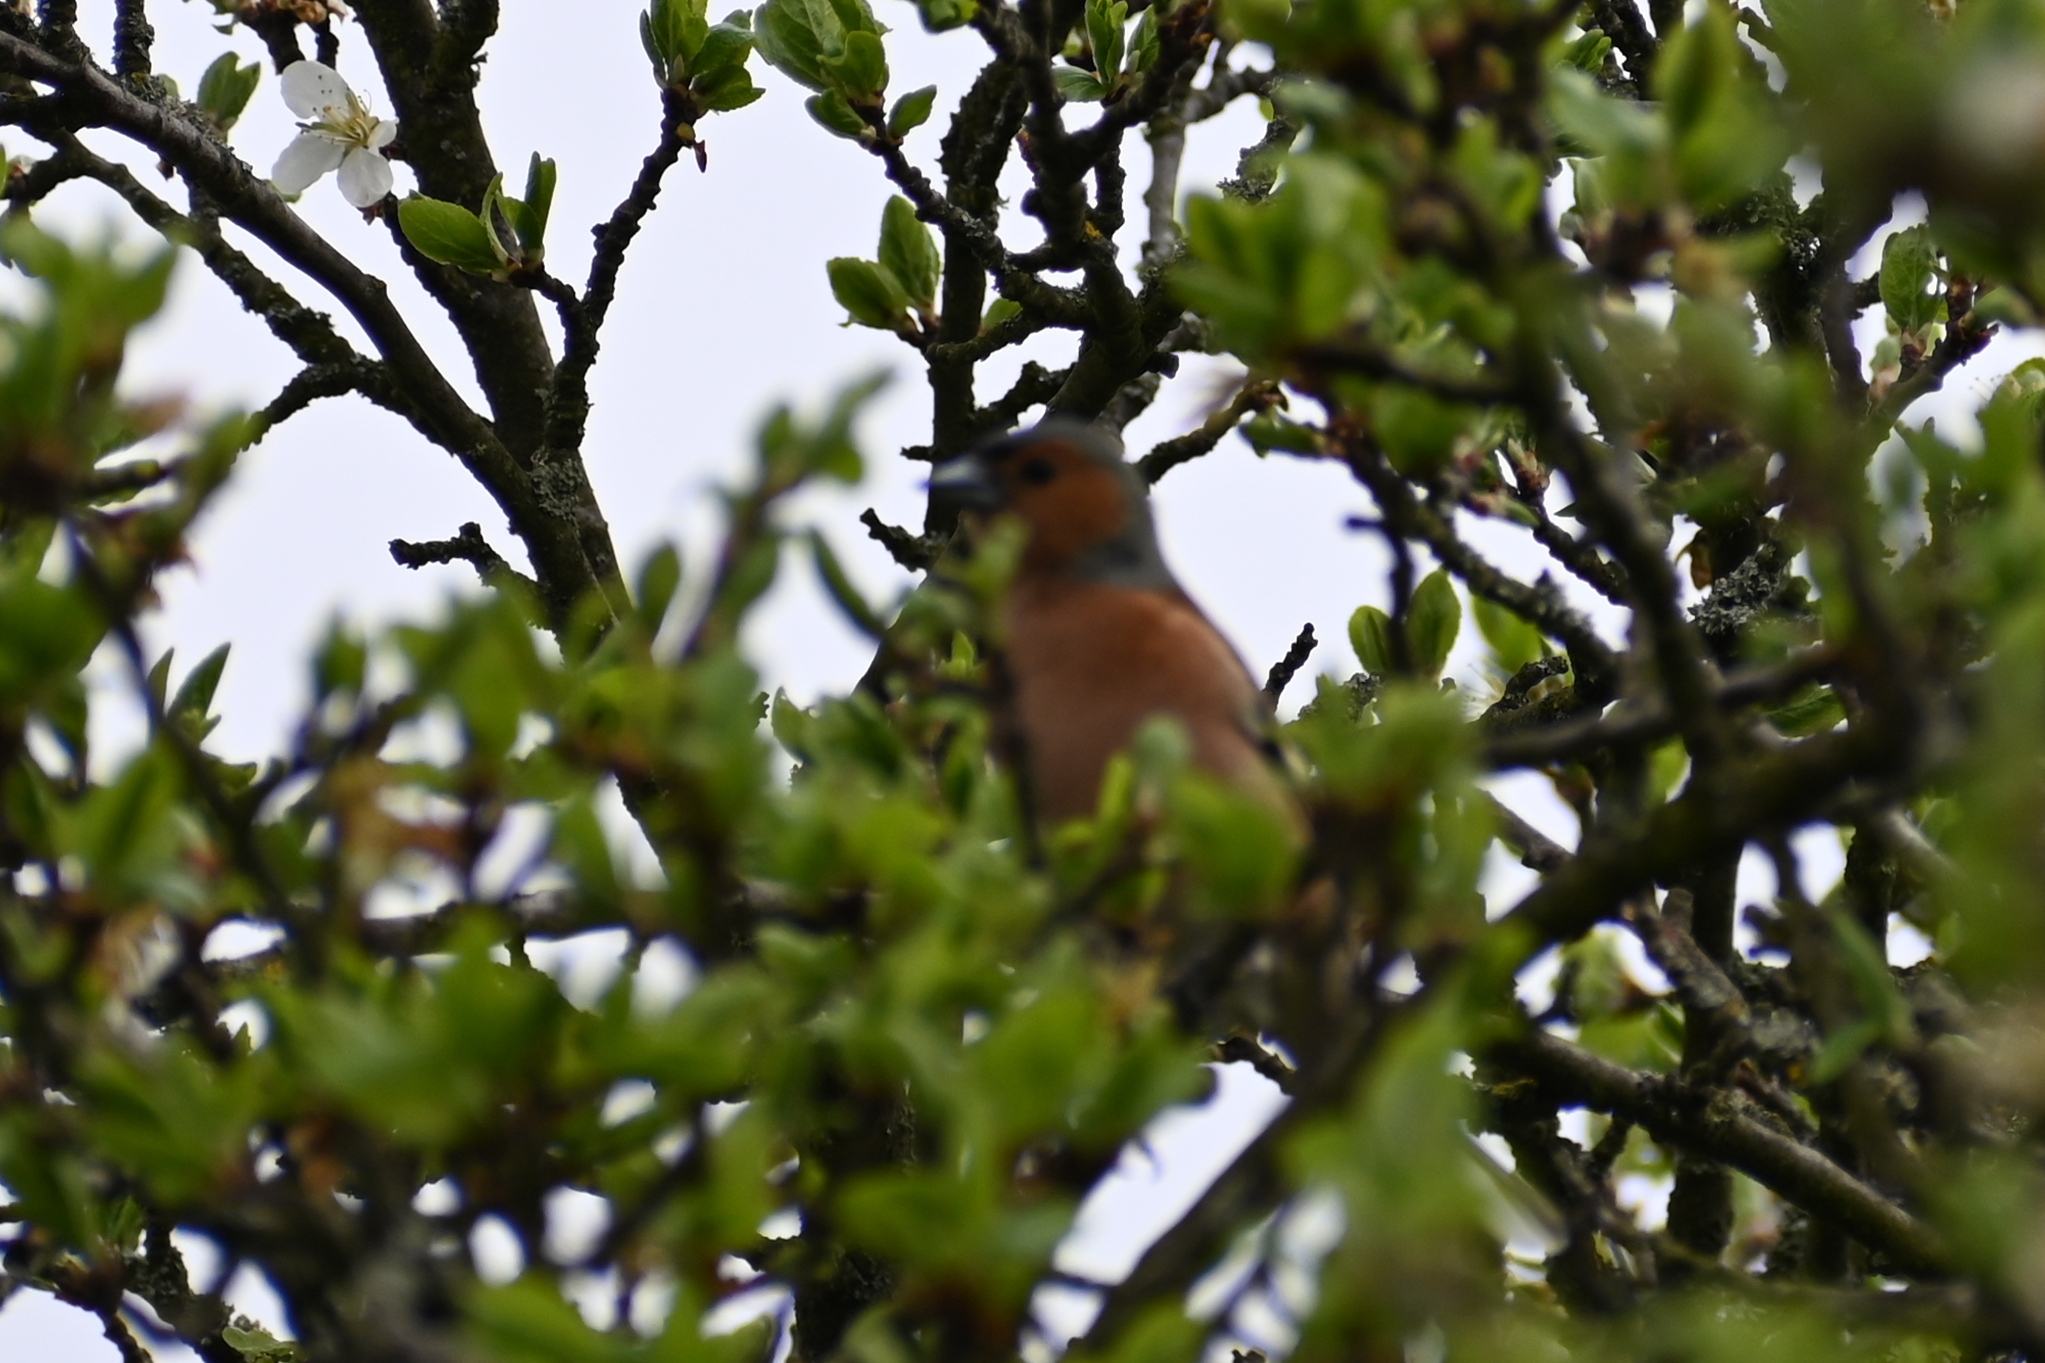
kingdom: Animalia
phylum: Chordata
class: Aves
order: Passeriformes
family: Fringillidae
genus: Fringilla
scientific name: Fringilla coelebs
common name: Common chaffinch
